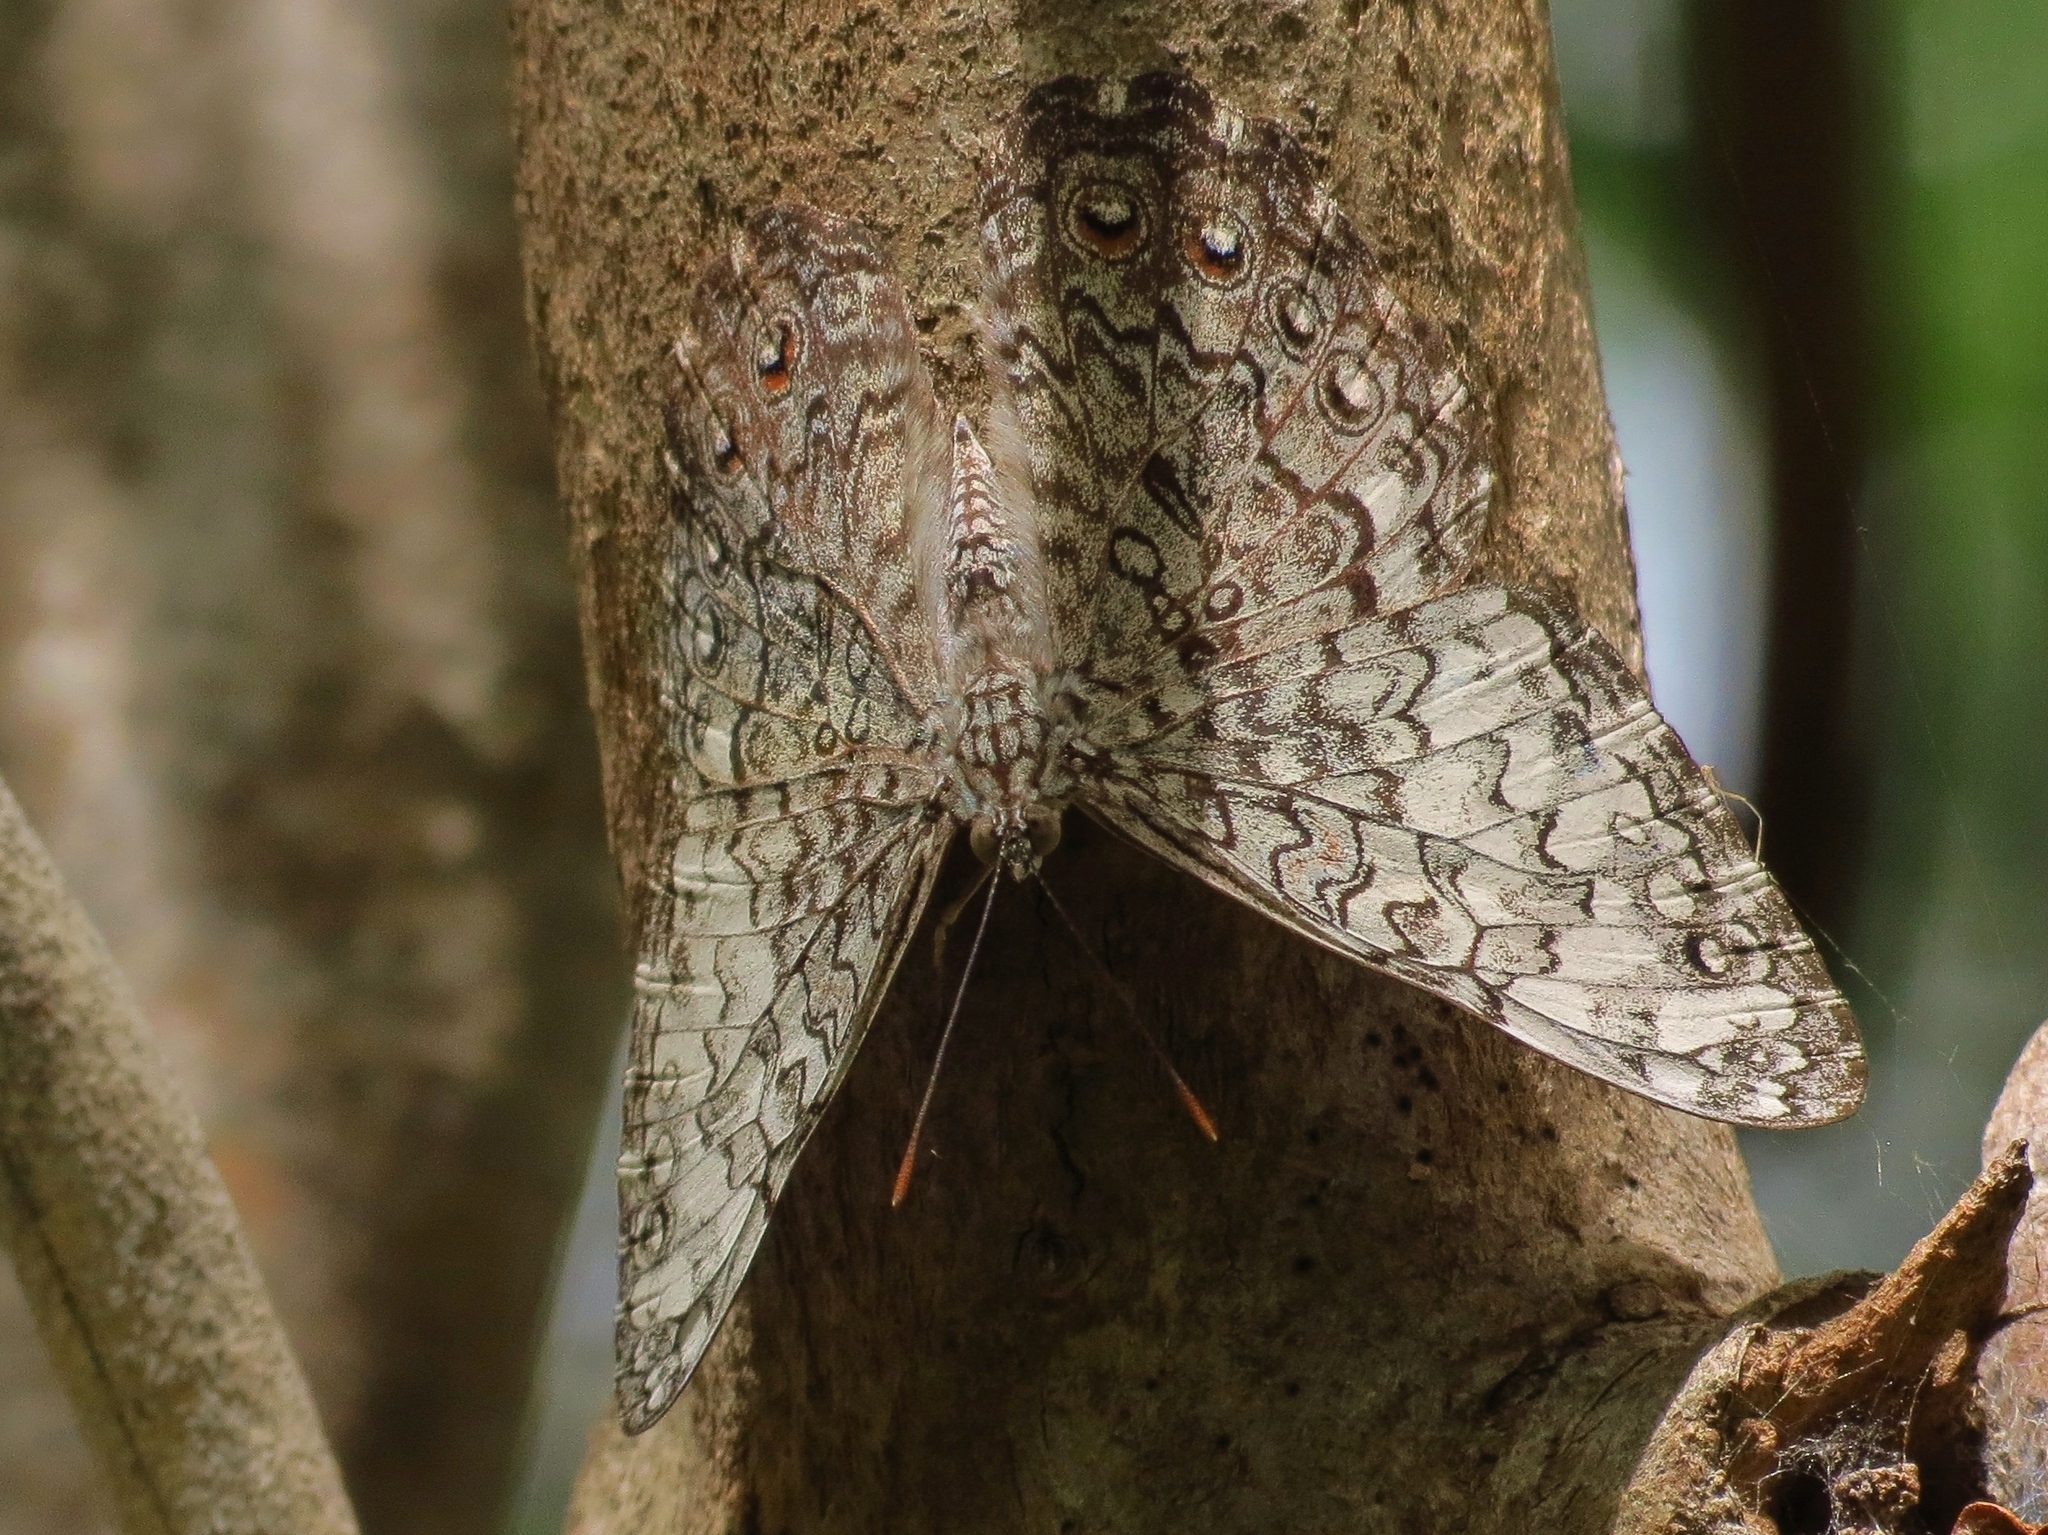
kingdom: Animalia
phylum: Arthropoda
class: Insecta
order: Lepidoptera
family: Nymphalidae
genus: Hamadryas
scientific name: Hamadryas februa
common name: Gray cracker
